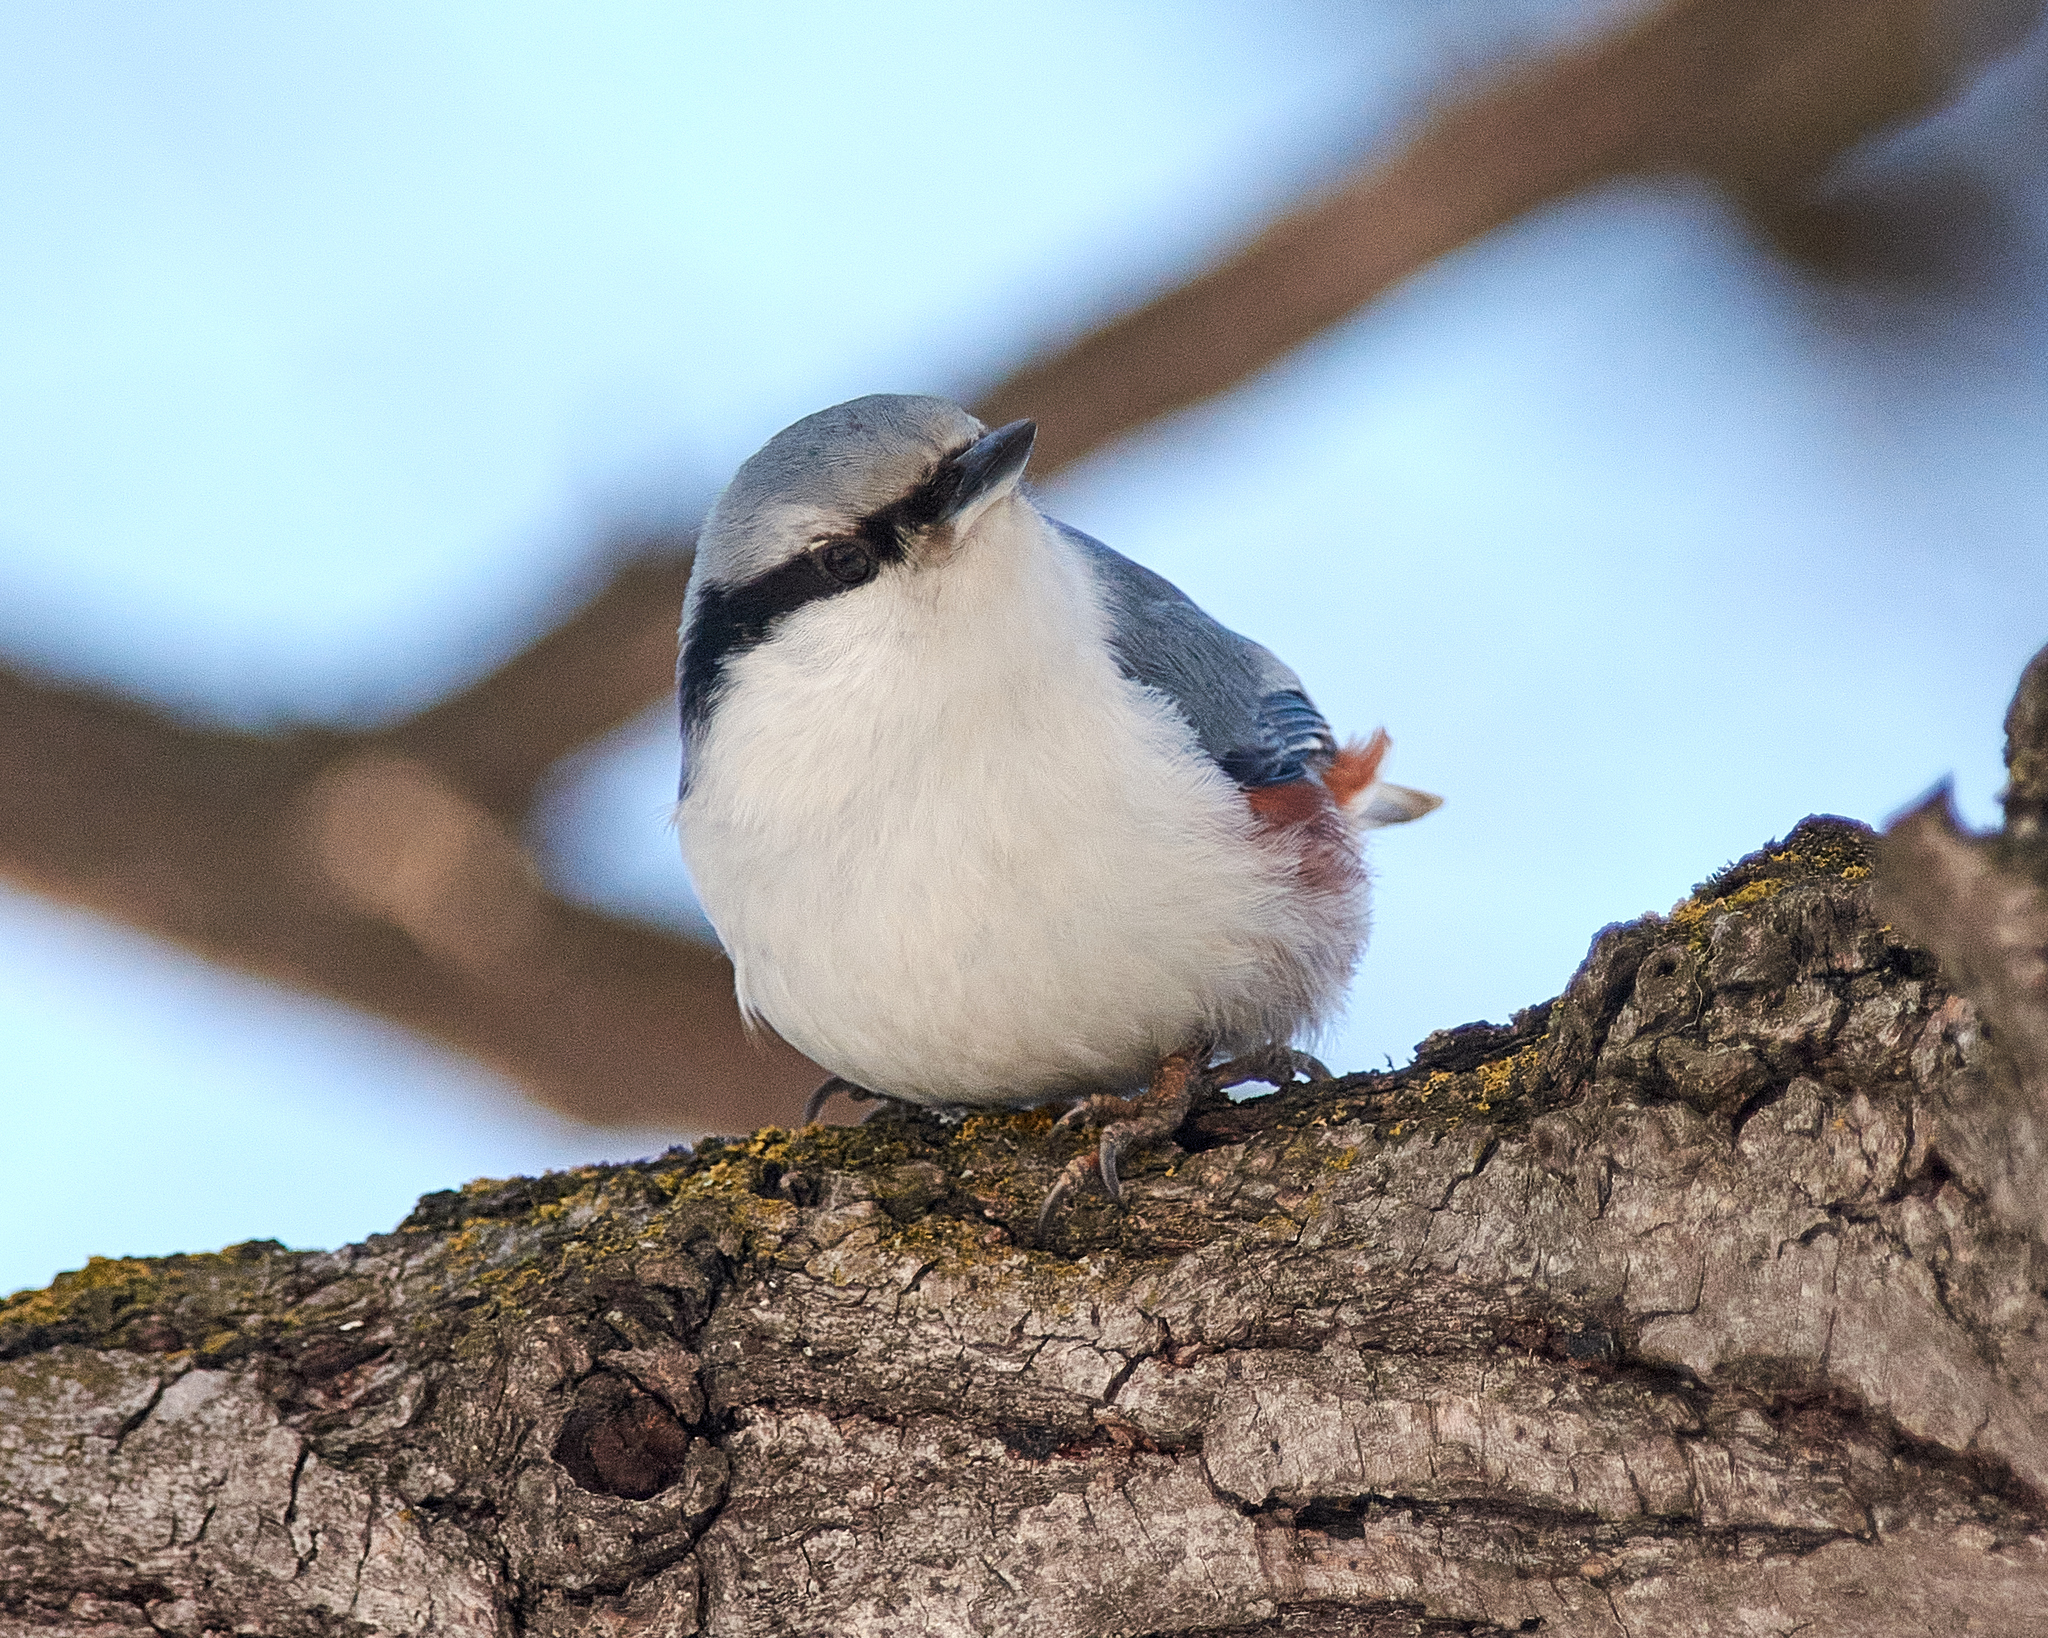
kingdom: Animalia
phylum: Chordata
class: Aves
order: Passeriformes
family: Sittidae
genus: Sitta
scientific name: Sitta europaea
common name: Eurasian nuthatch
